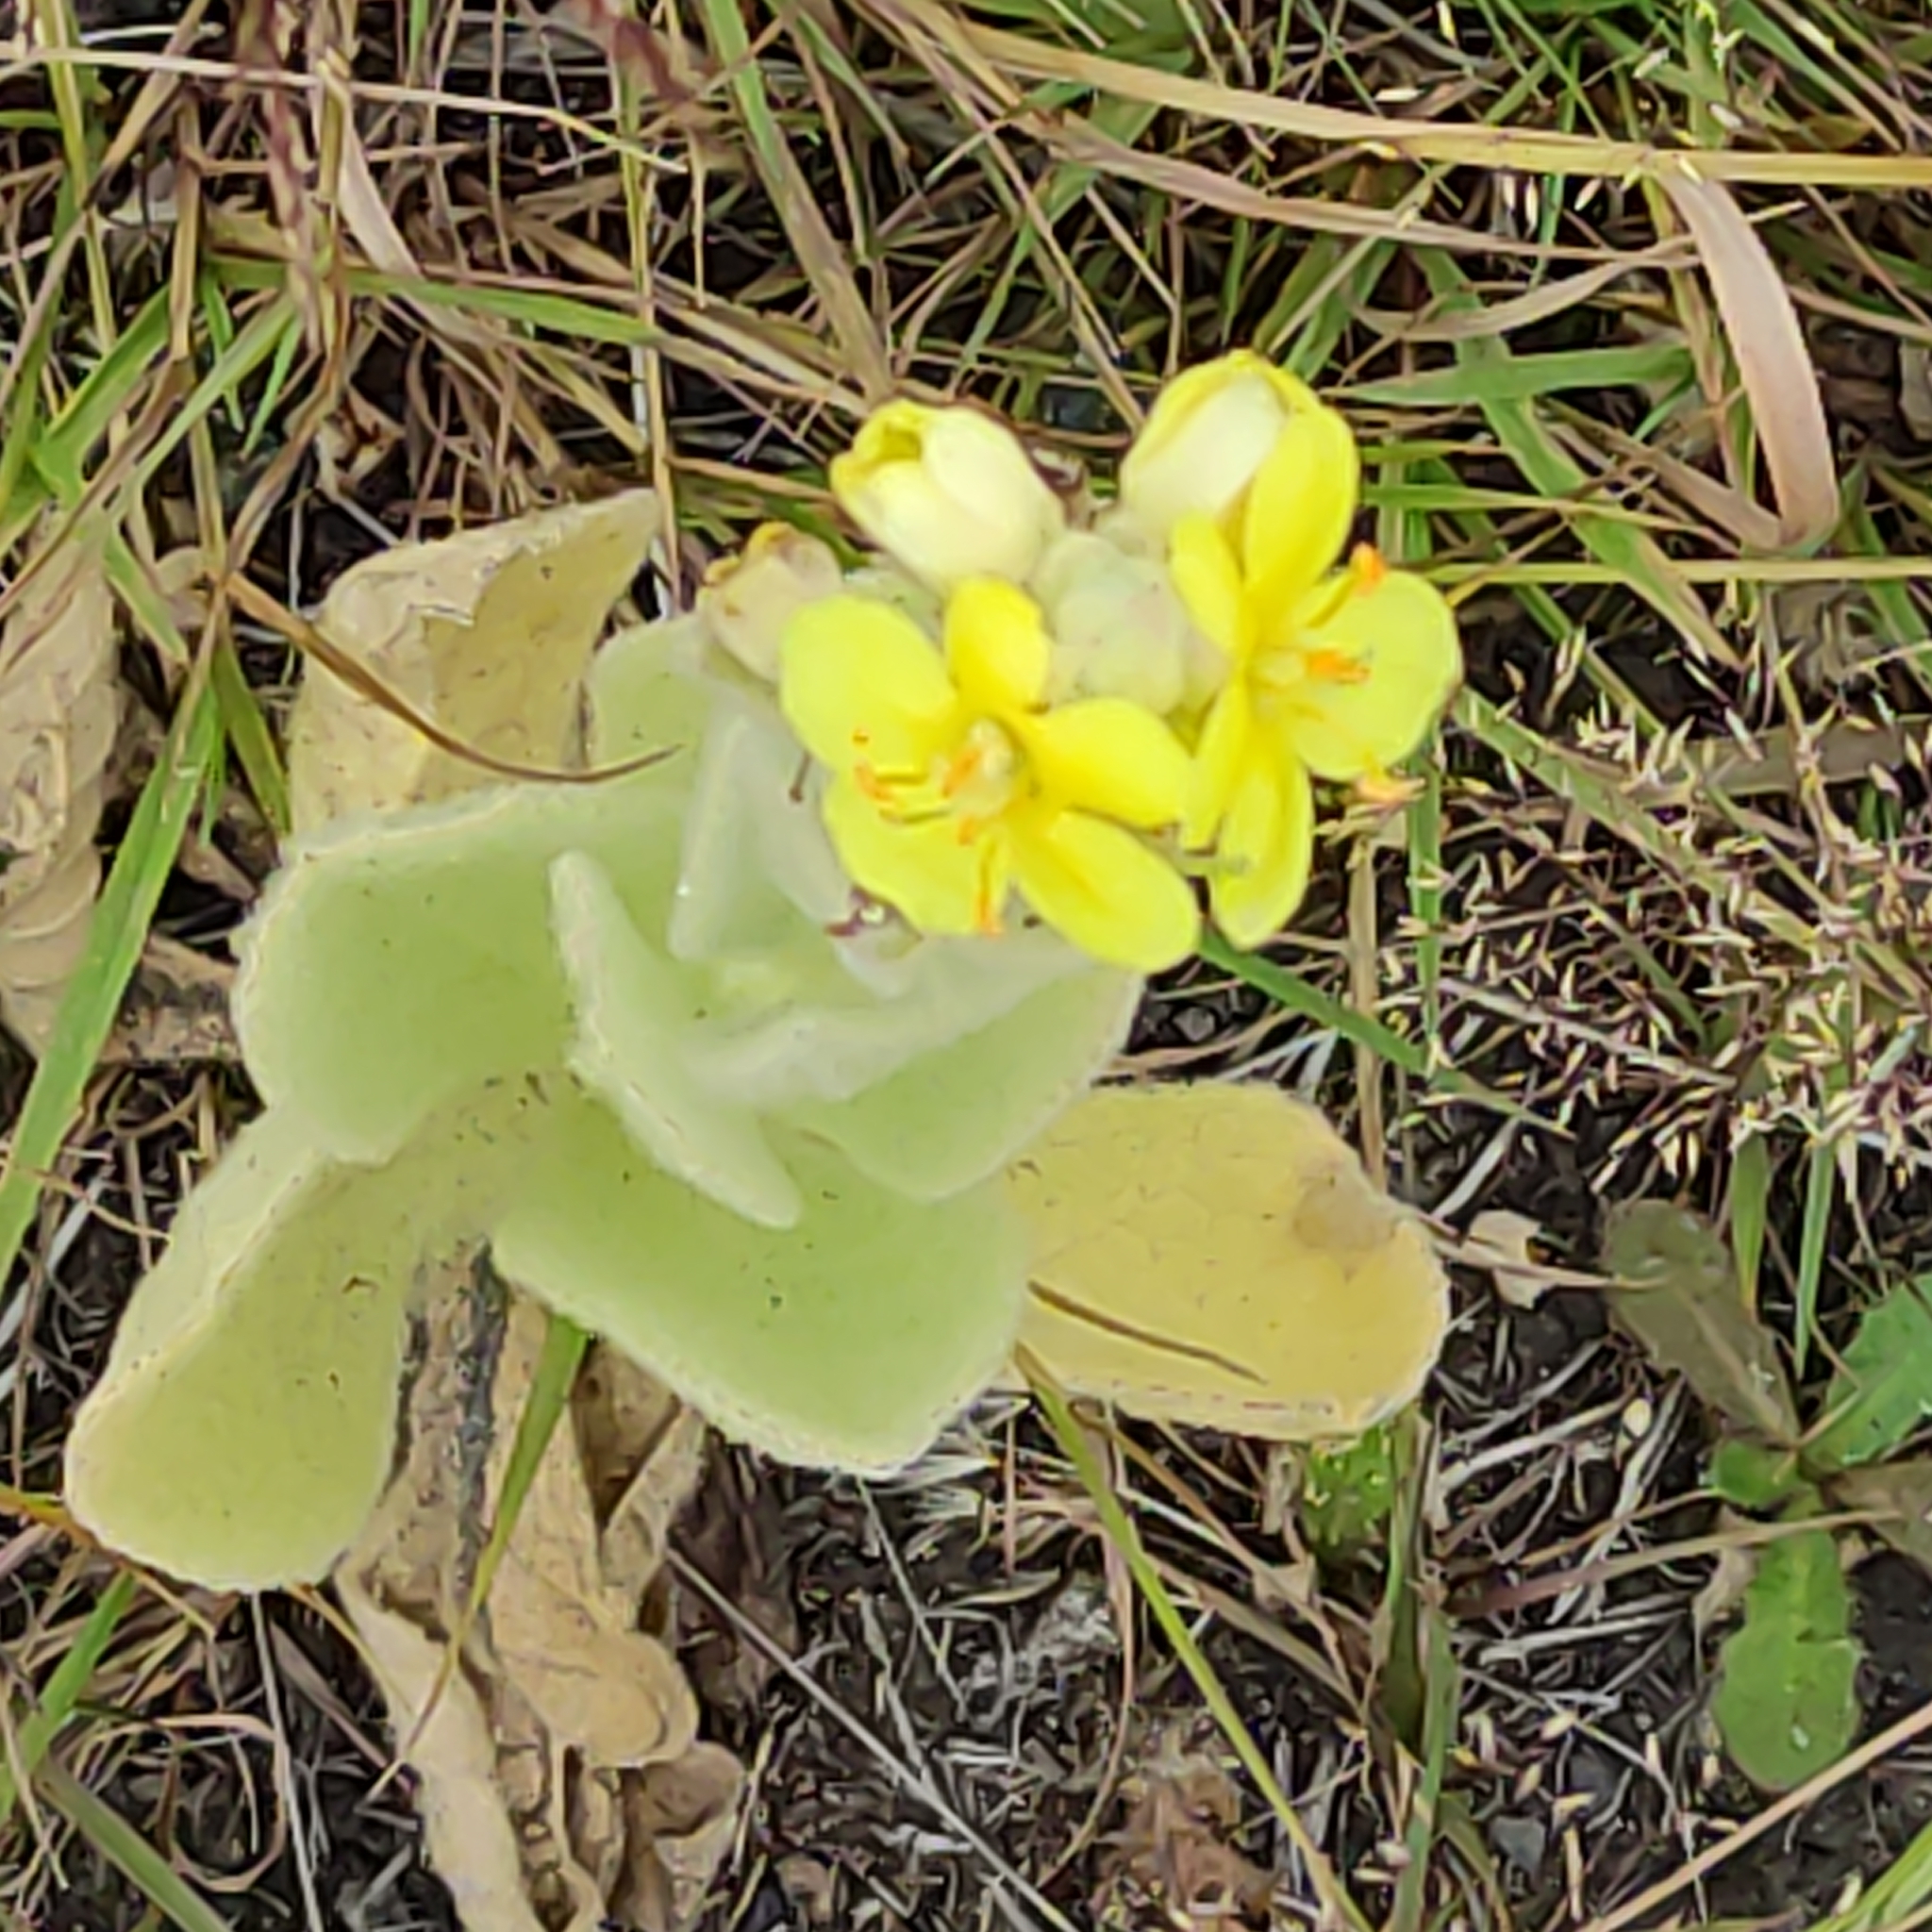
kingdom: Plantae
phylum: Tracheophyta
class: Magnoliopsida
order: Lamiales
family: Phrymaceae
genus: Erythranthe
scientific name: Erythranthe moschata
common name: Muskflower
